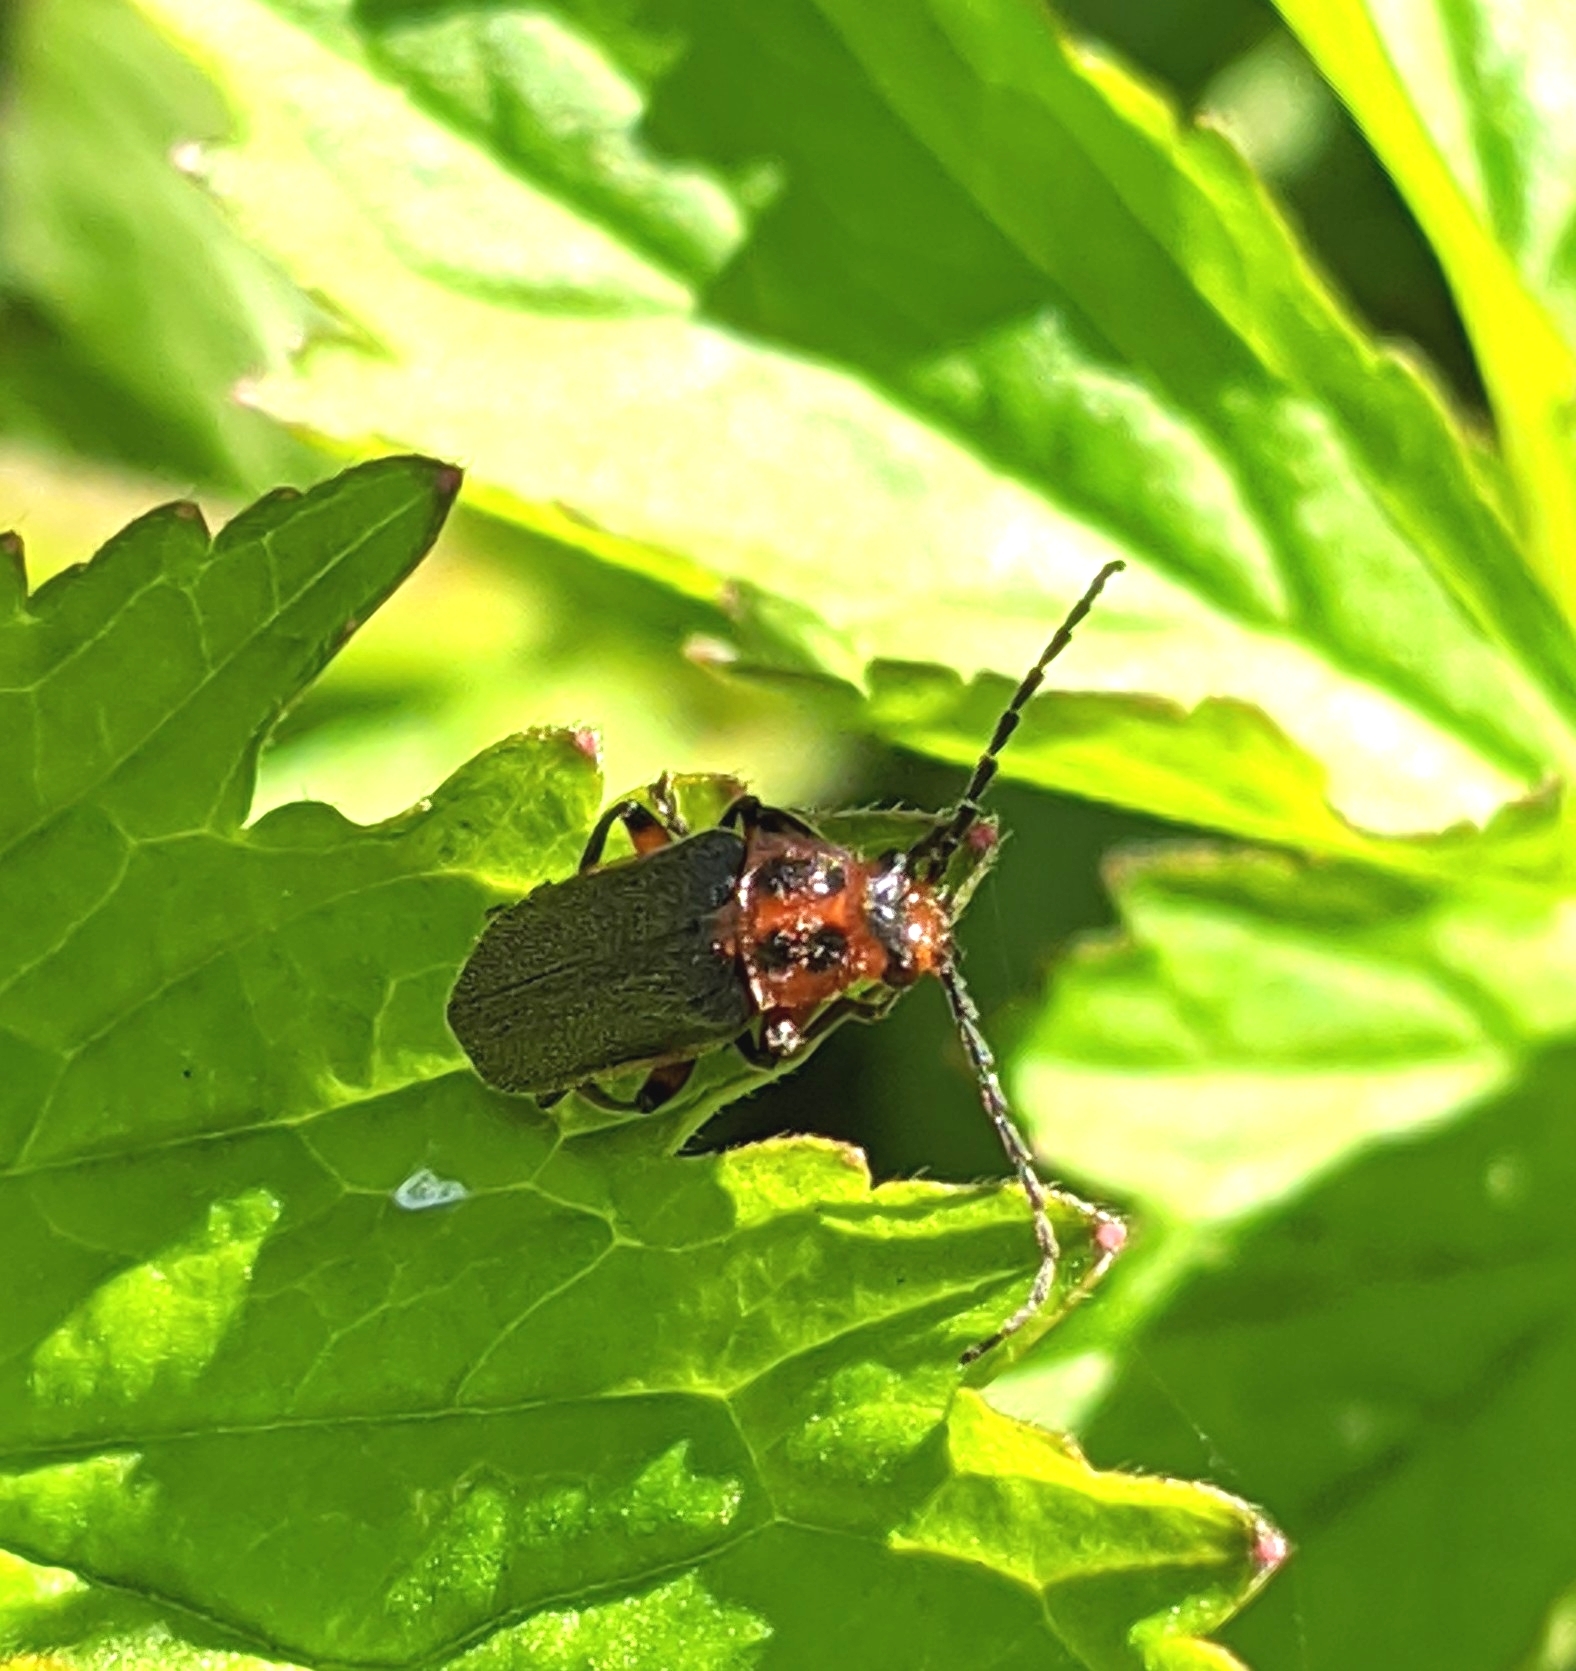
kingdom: Animalia
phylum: Arthropoda
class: Insecta
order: Coleoptera
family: Cantharidae
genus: Atalantycha
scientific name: Atalantycha bilineata
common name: Two-lined leatherwing
